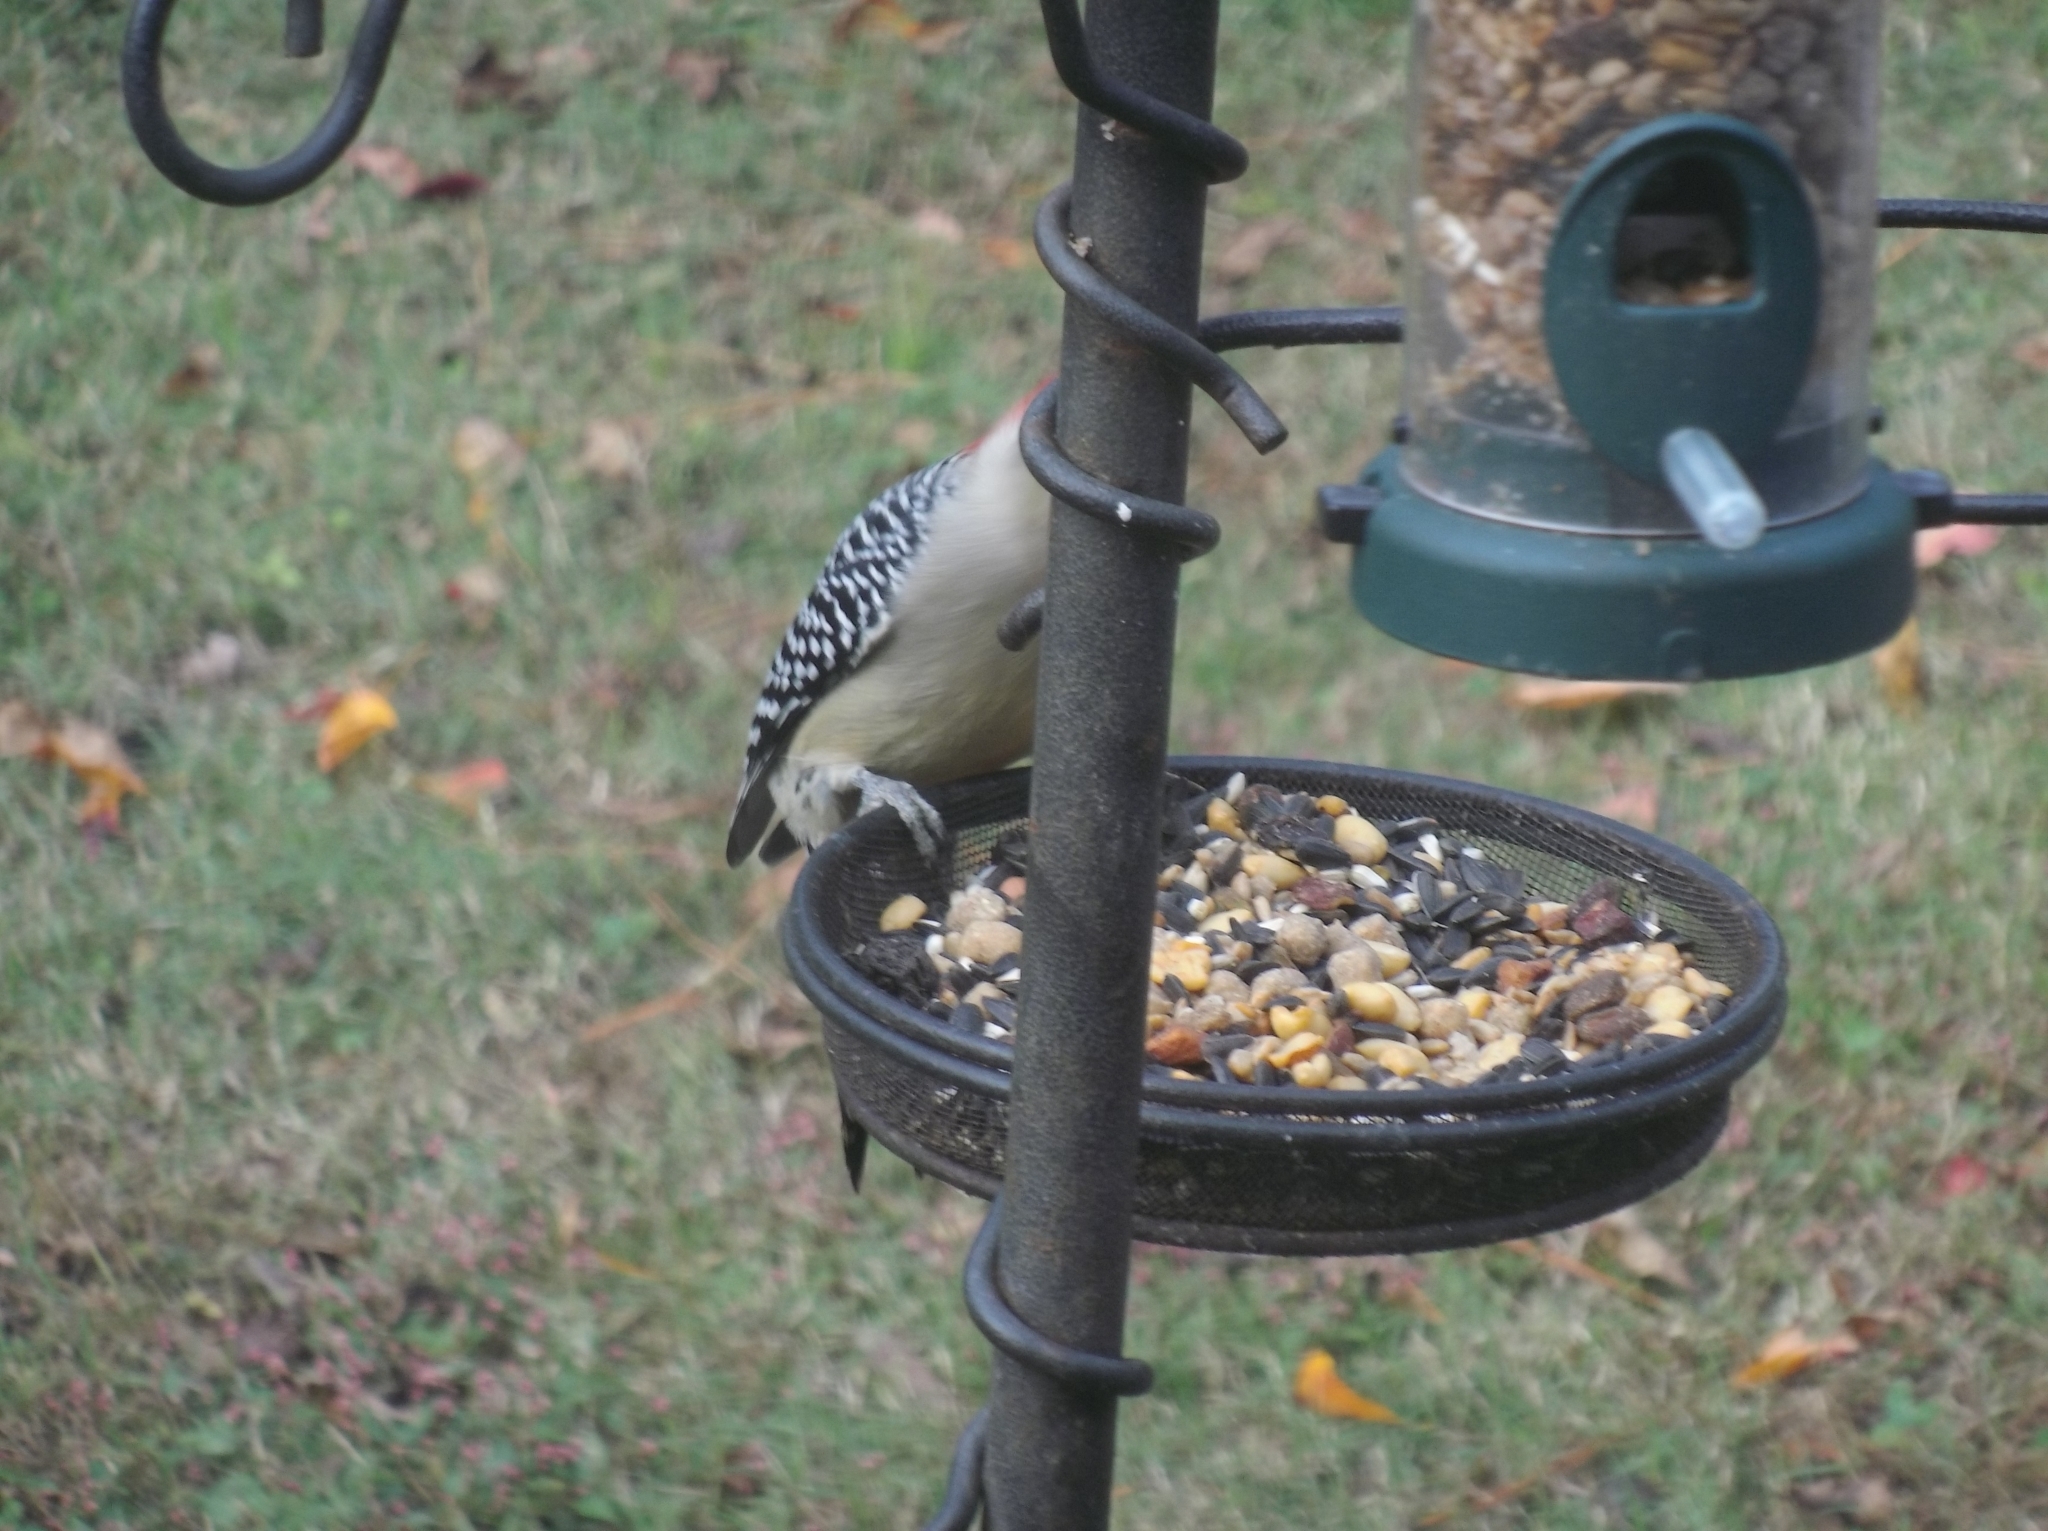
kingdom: Animalia
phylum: Chordata
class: Aves
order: Piciformes
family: Picidae
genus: Melanerpes
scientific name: Melanerpes carolinus
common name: Red-bellied woodpecker
